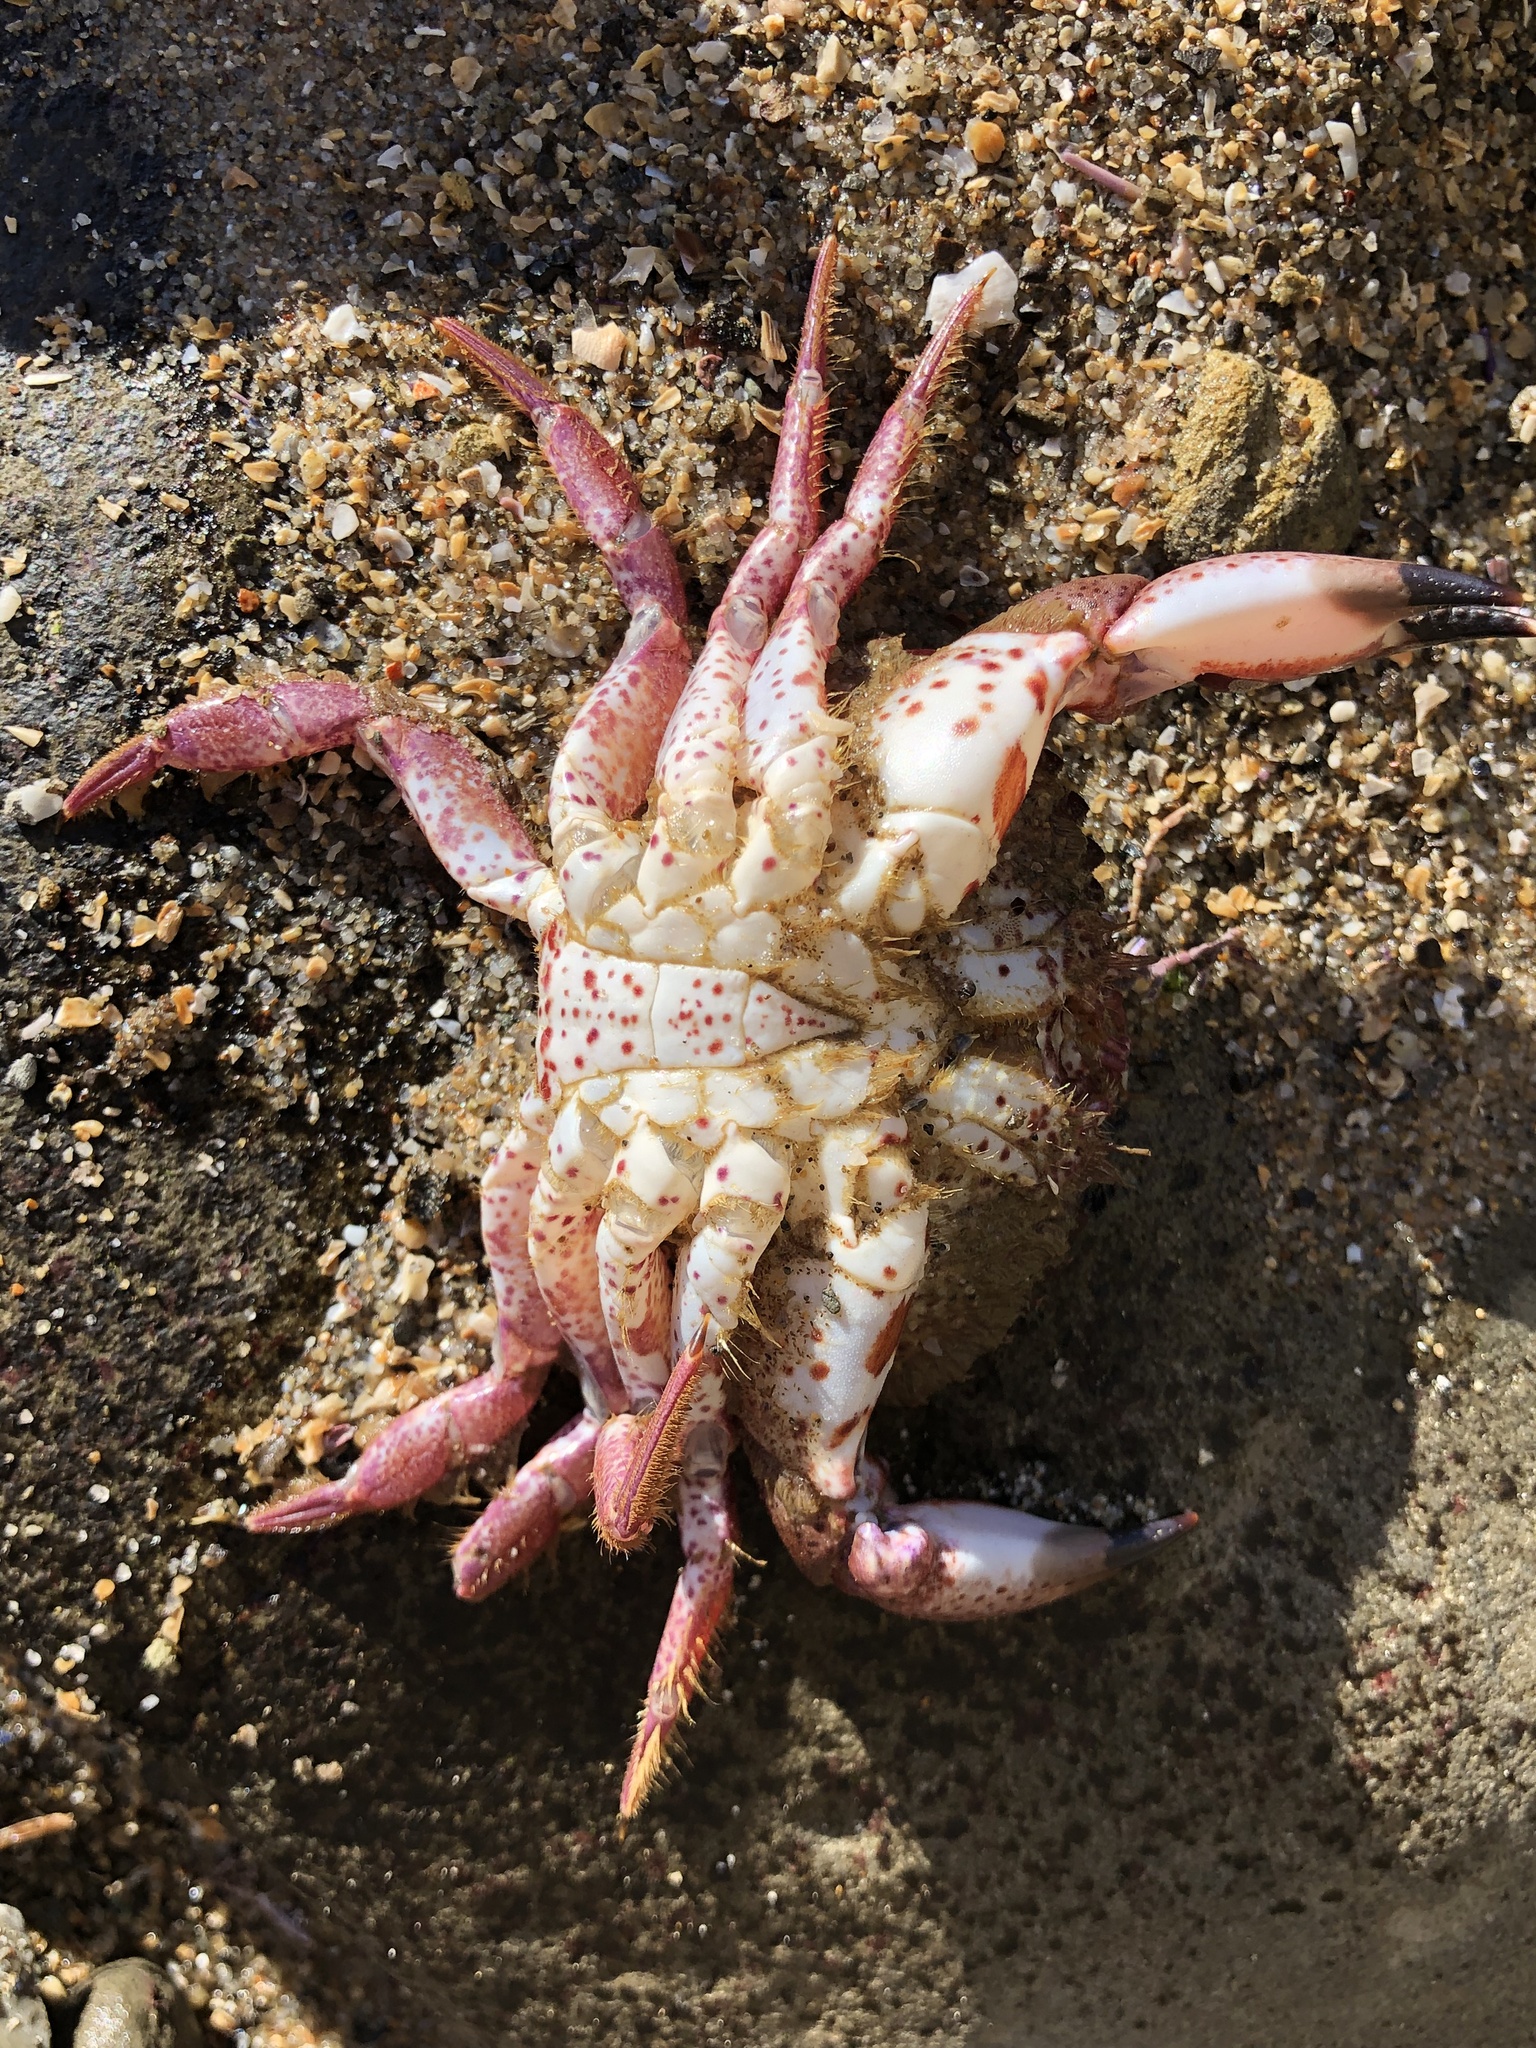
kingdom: Animalia
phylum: Arthropoda
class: Malacostraca
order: Decapoda
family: Cancridae
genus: Romaleon
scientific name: Romaleon antennarium
